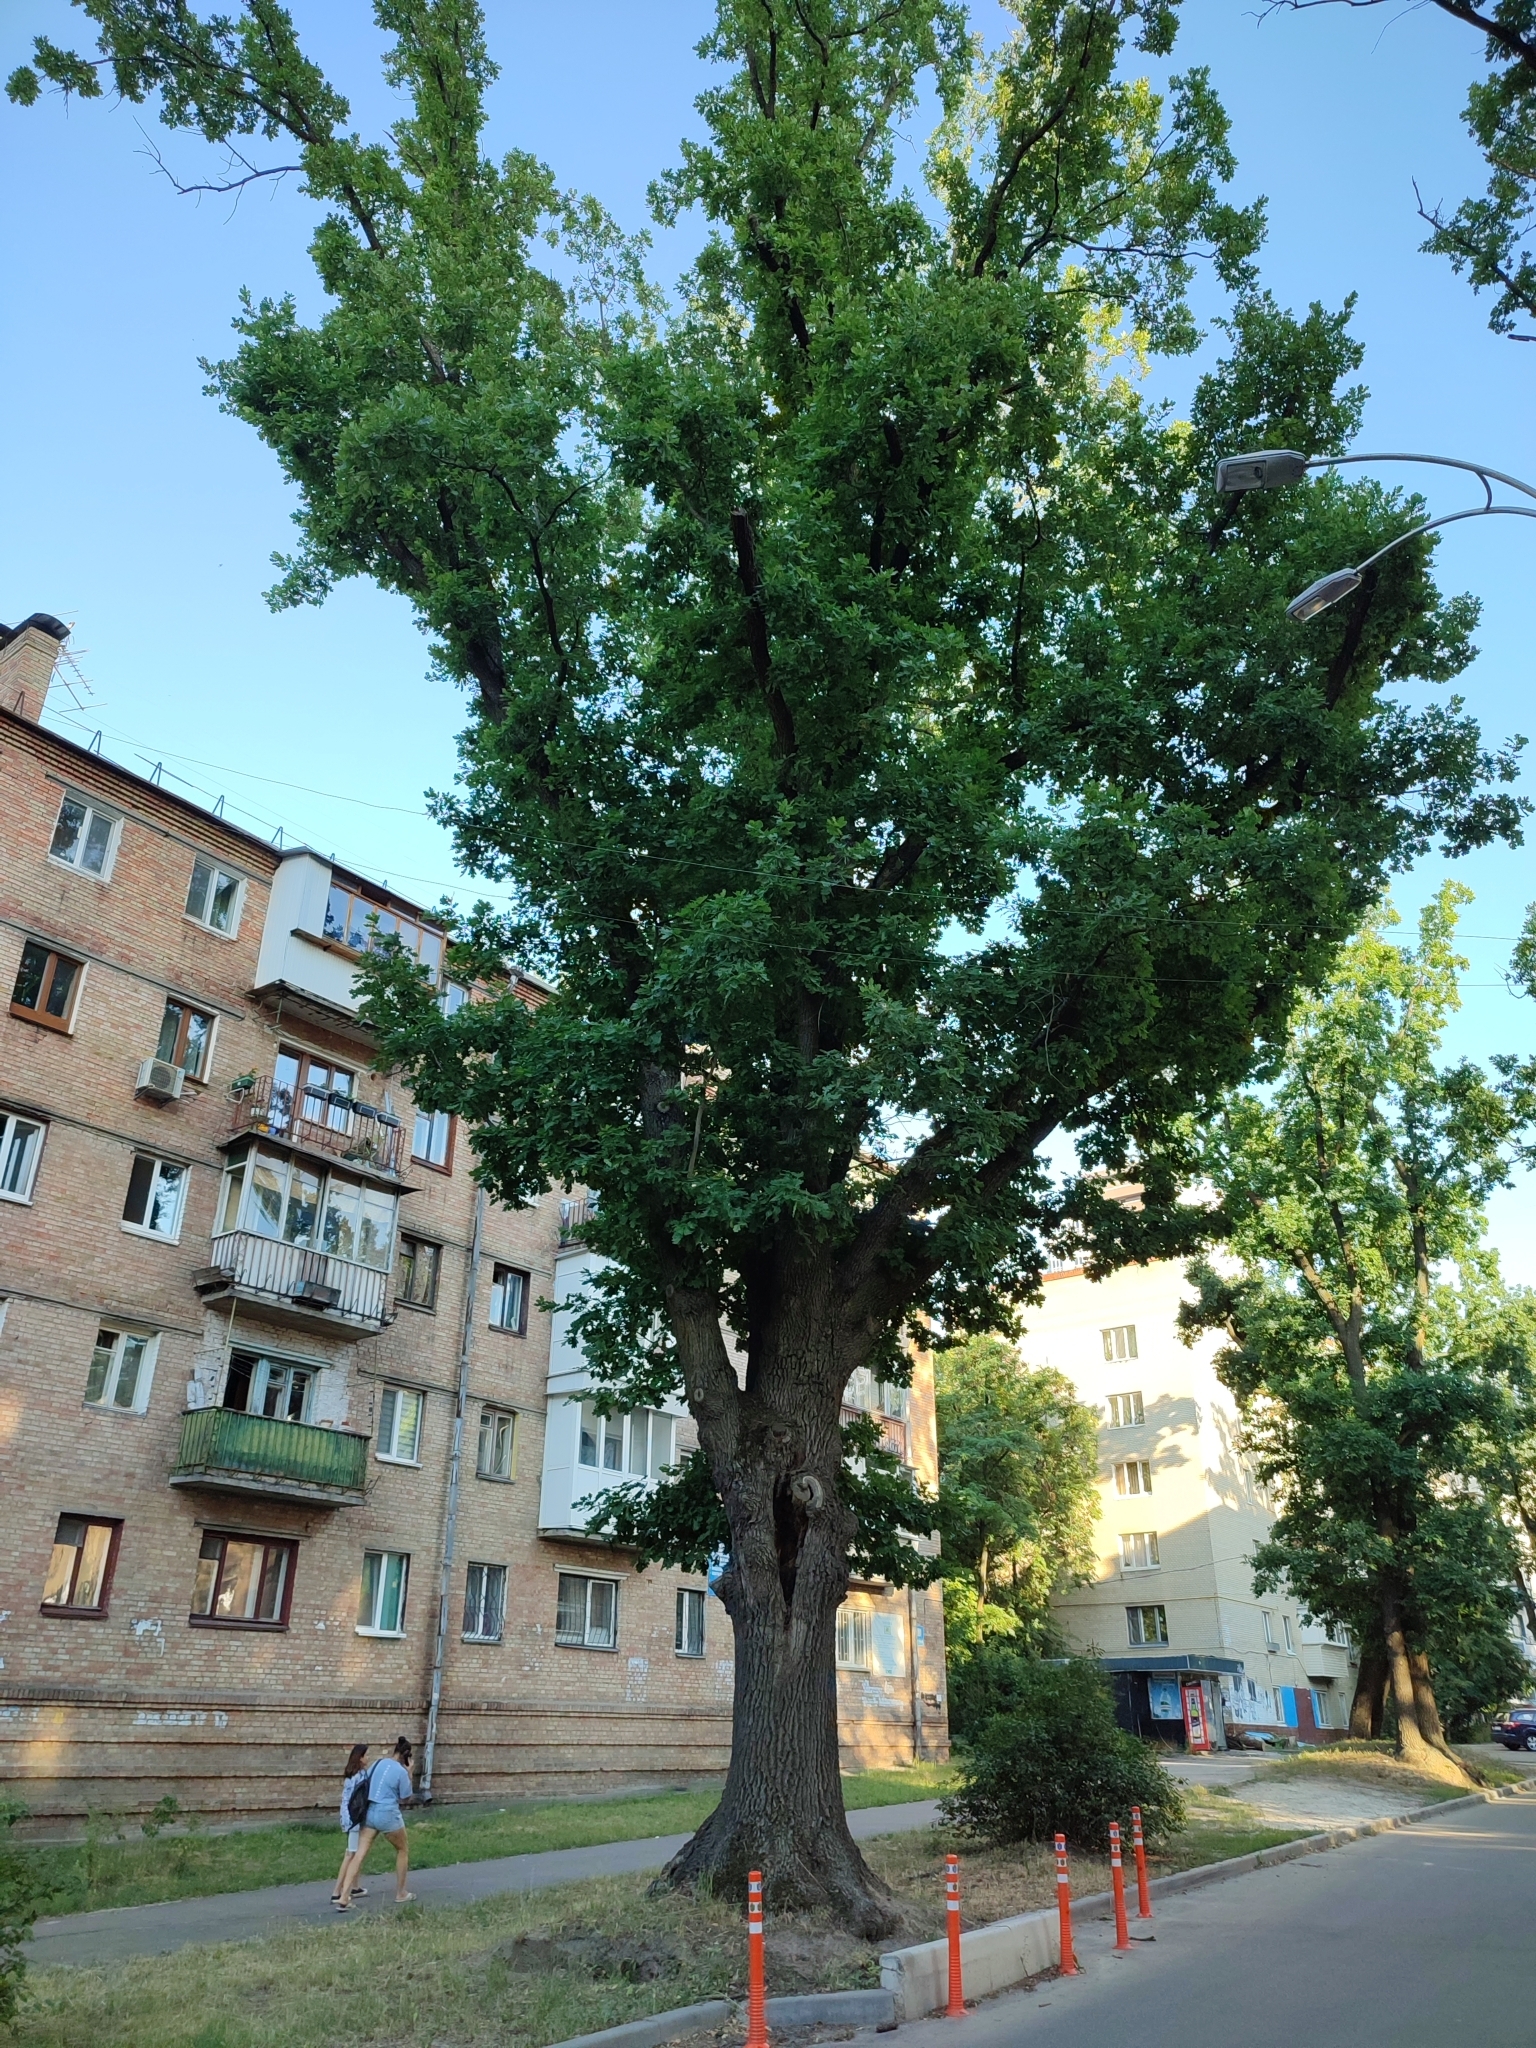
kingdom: Plantae
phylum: Tracheophyta
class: Magnoliopsida
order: Fagales
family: Fagaceae
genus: Quercus
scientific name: Quercus robur
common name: Pedunculate oak
